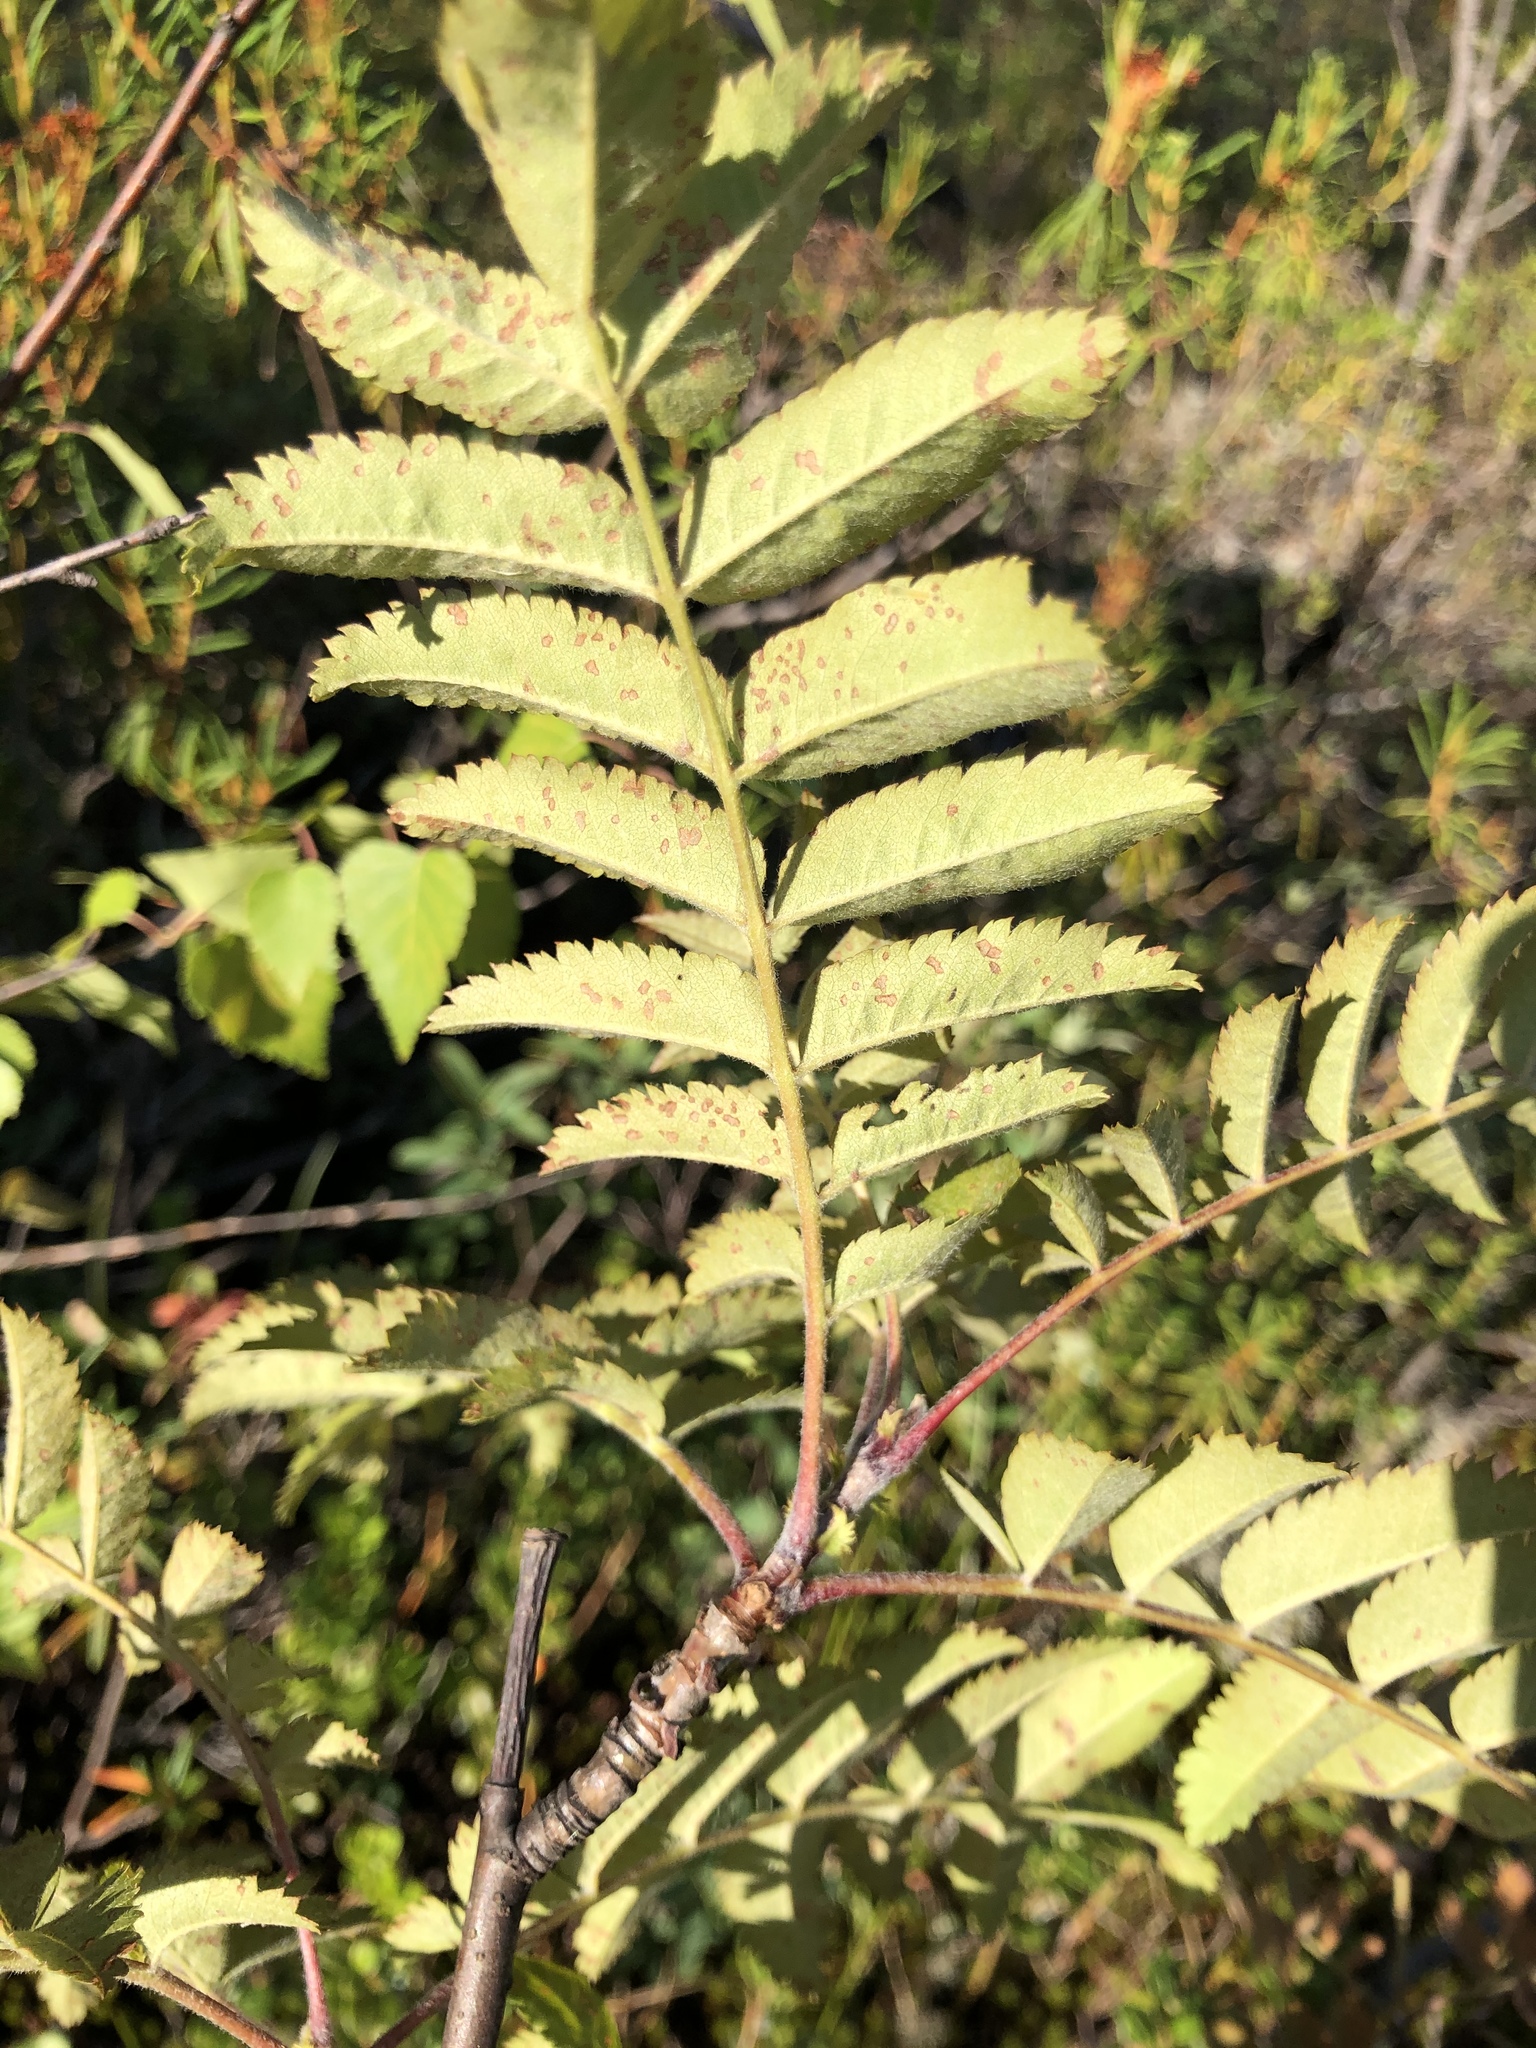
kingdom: Plantae
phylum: Tracheophyta
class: Magnoliopsida
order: Rosales
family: Rosaceae
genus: Sorbus
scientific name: Sorbus aucuparia
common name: Rowan
